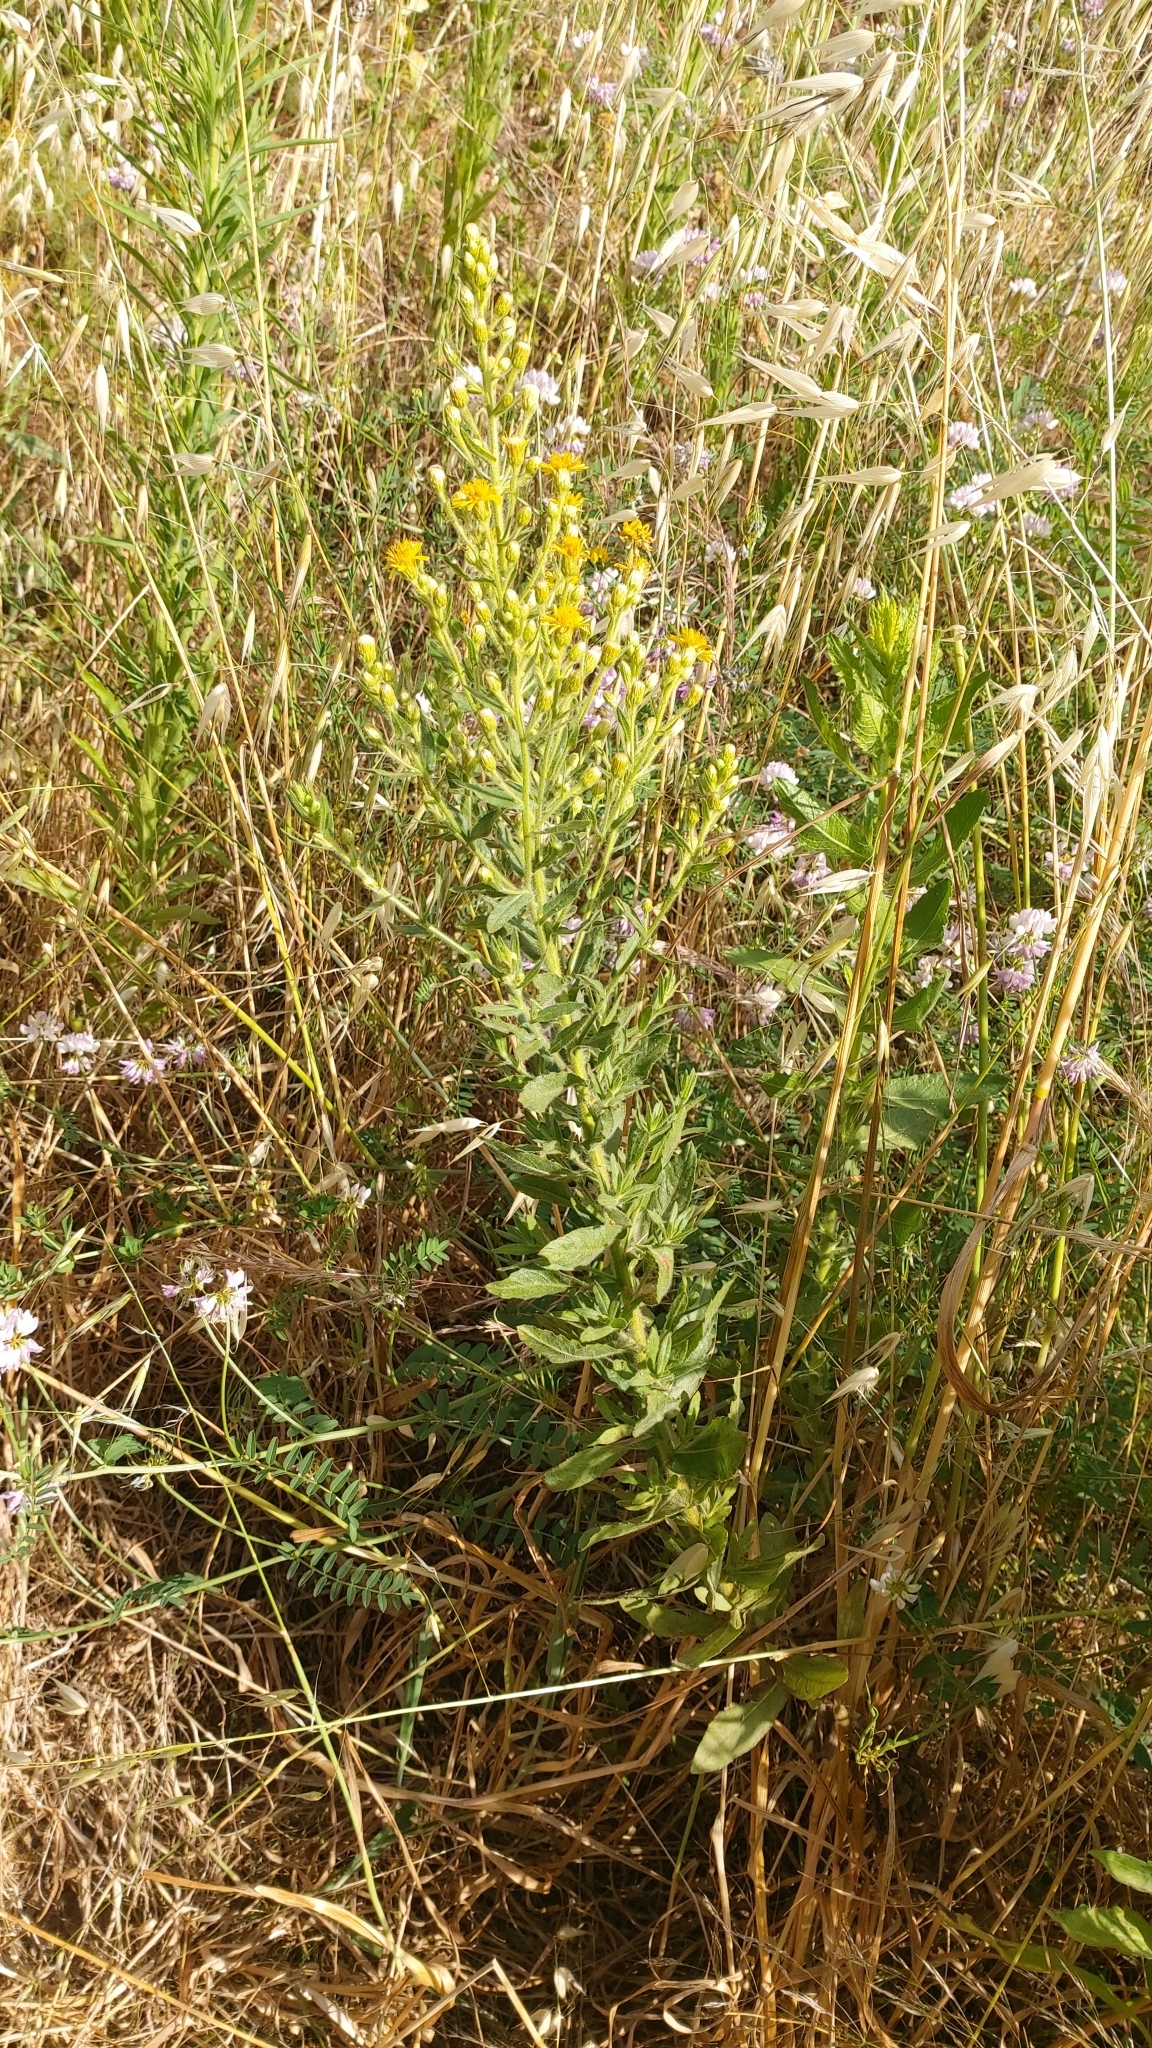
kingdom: Plantae
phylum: Tracheophyta
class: Magnoliopsida
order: Asterales
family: Asteraceae
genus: Dittrichia
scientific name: Dittrichia viscosa
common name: Woody fleabane
